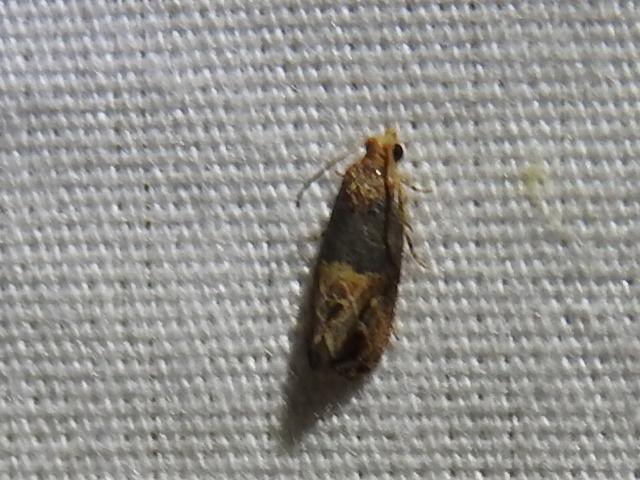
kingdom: Animalia
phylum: Arthropoda
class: Insecta
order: Lepidoptera
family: Tortricidae
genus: Paralobesia
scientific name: Paralobesia viteana
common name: Grape berry moth
